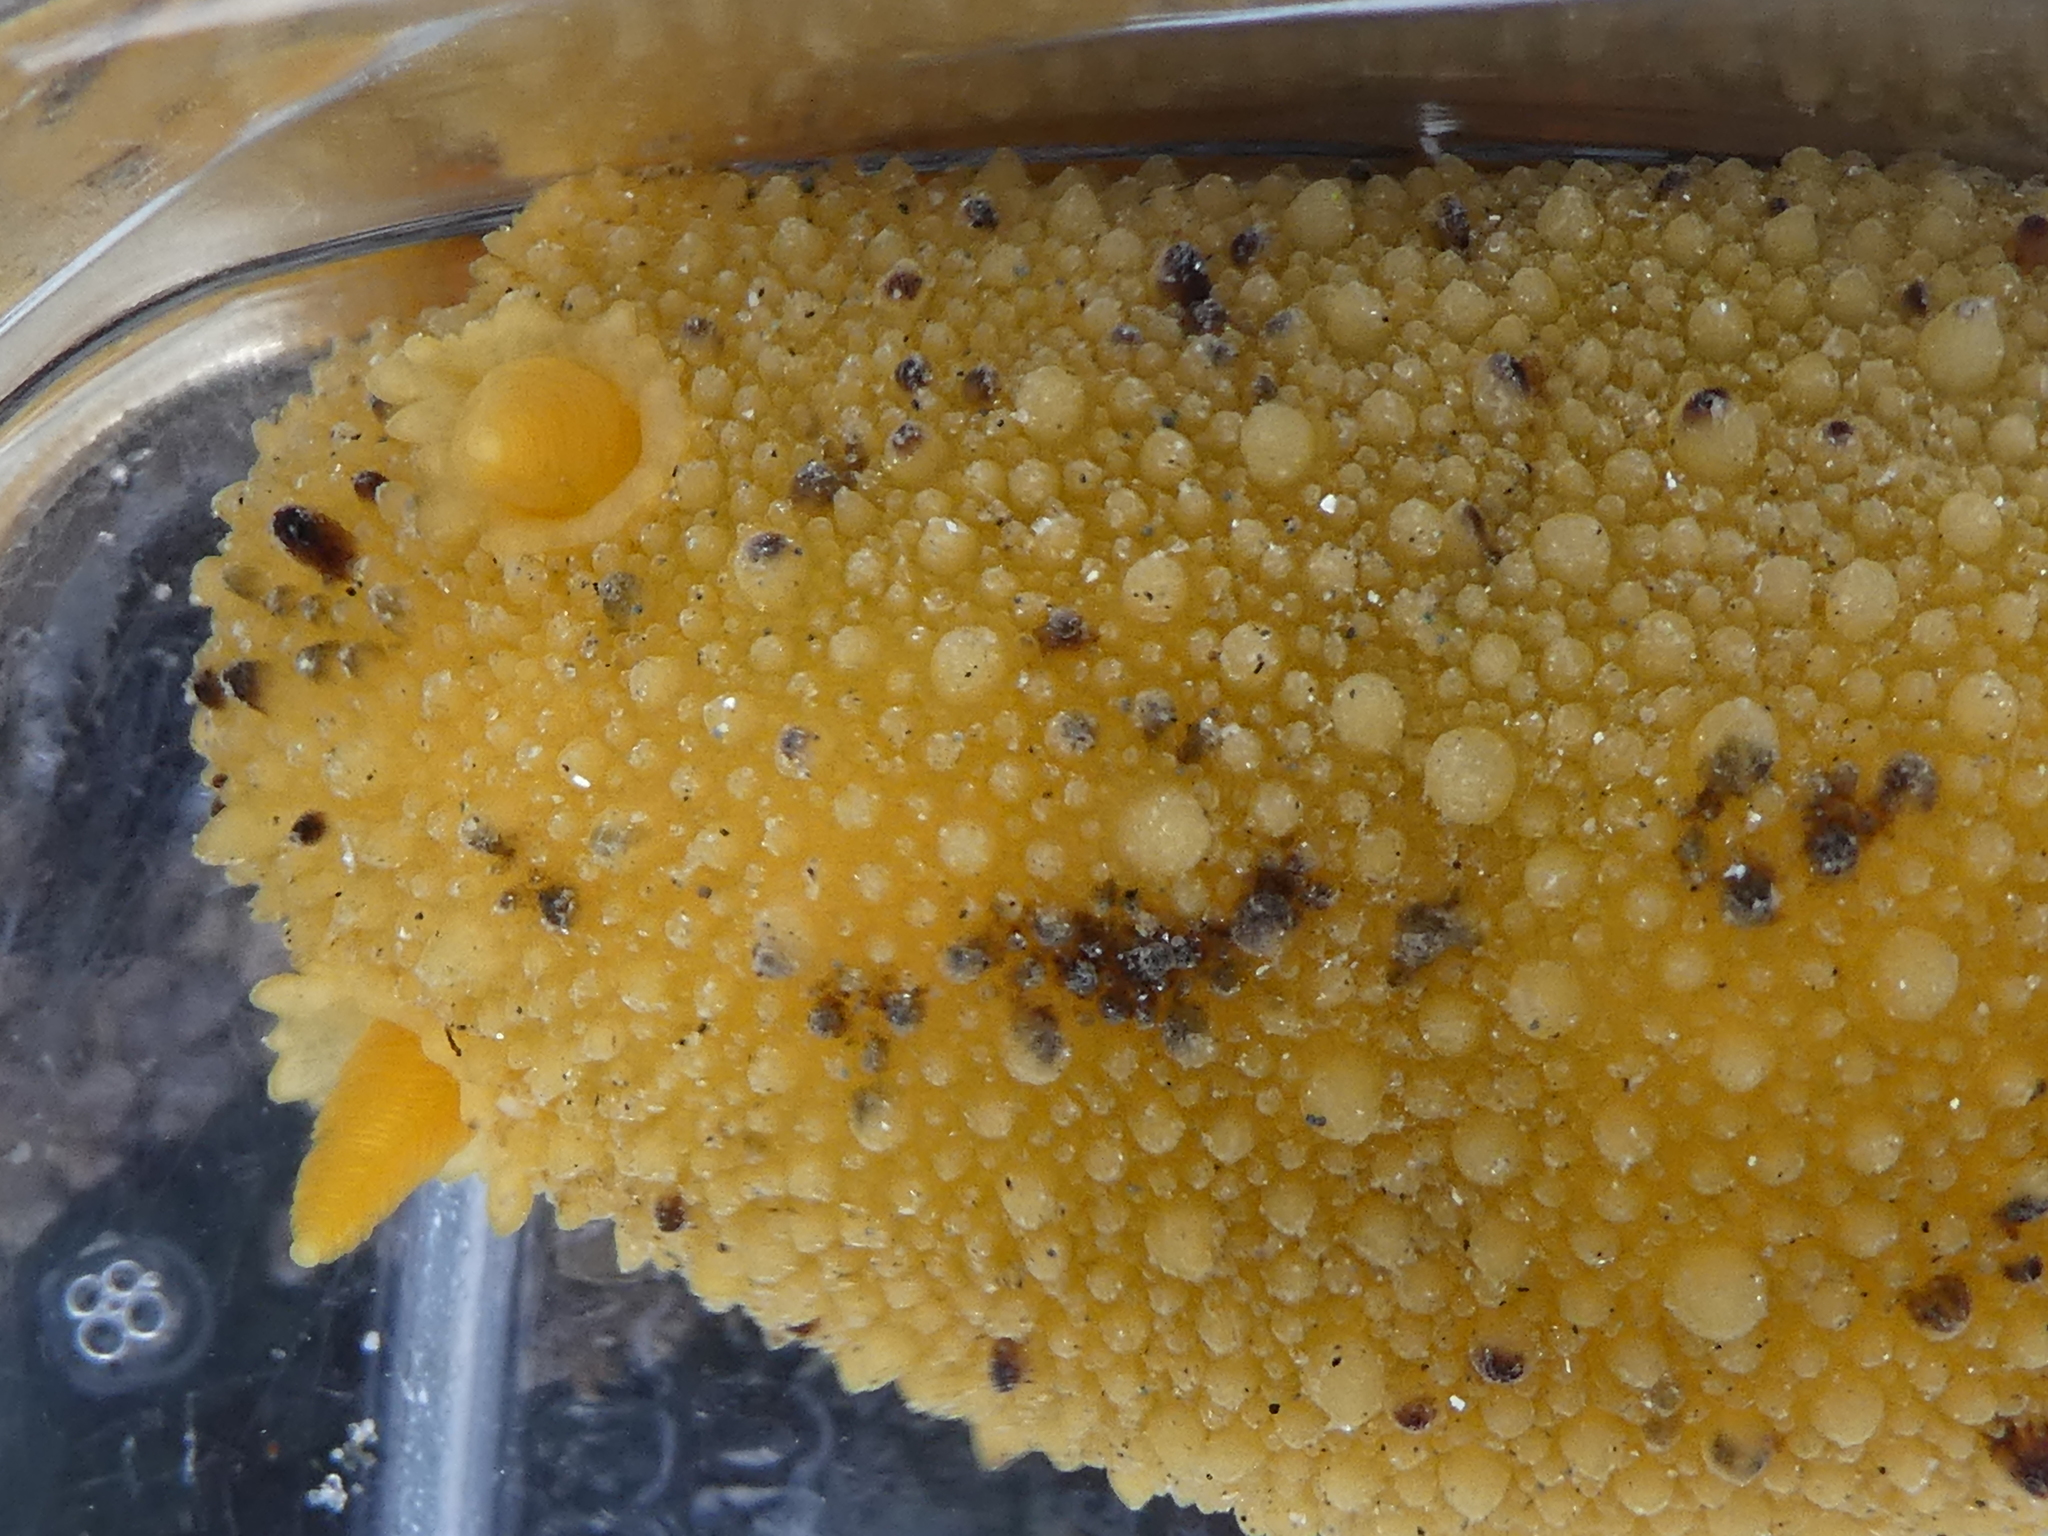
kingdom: Animalia
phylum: Mollusca
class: Gastropoda
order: Nudibranchia
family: Dorididae
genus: Doris
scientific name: Doris montereyensis
